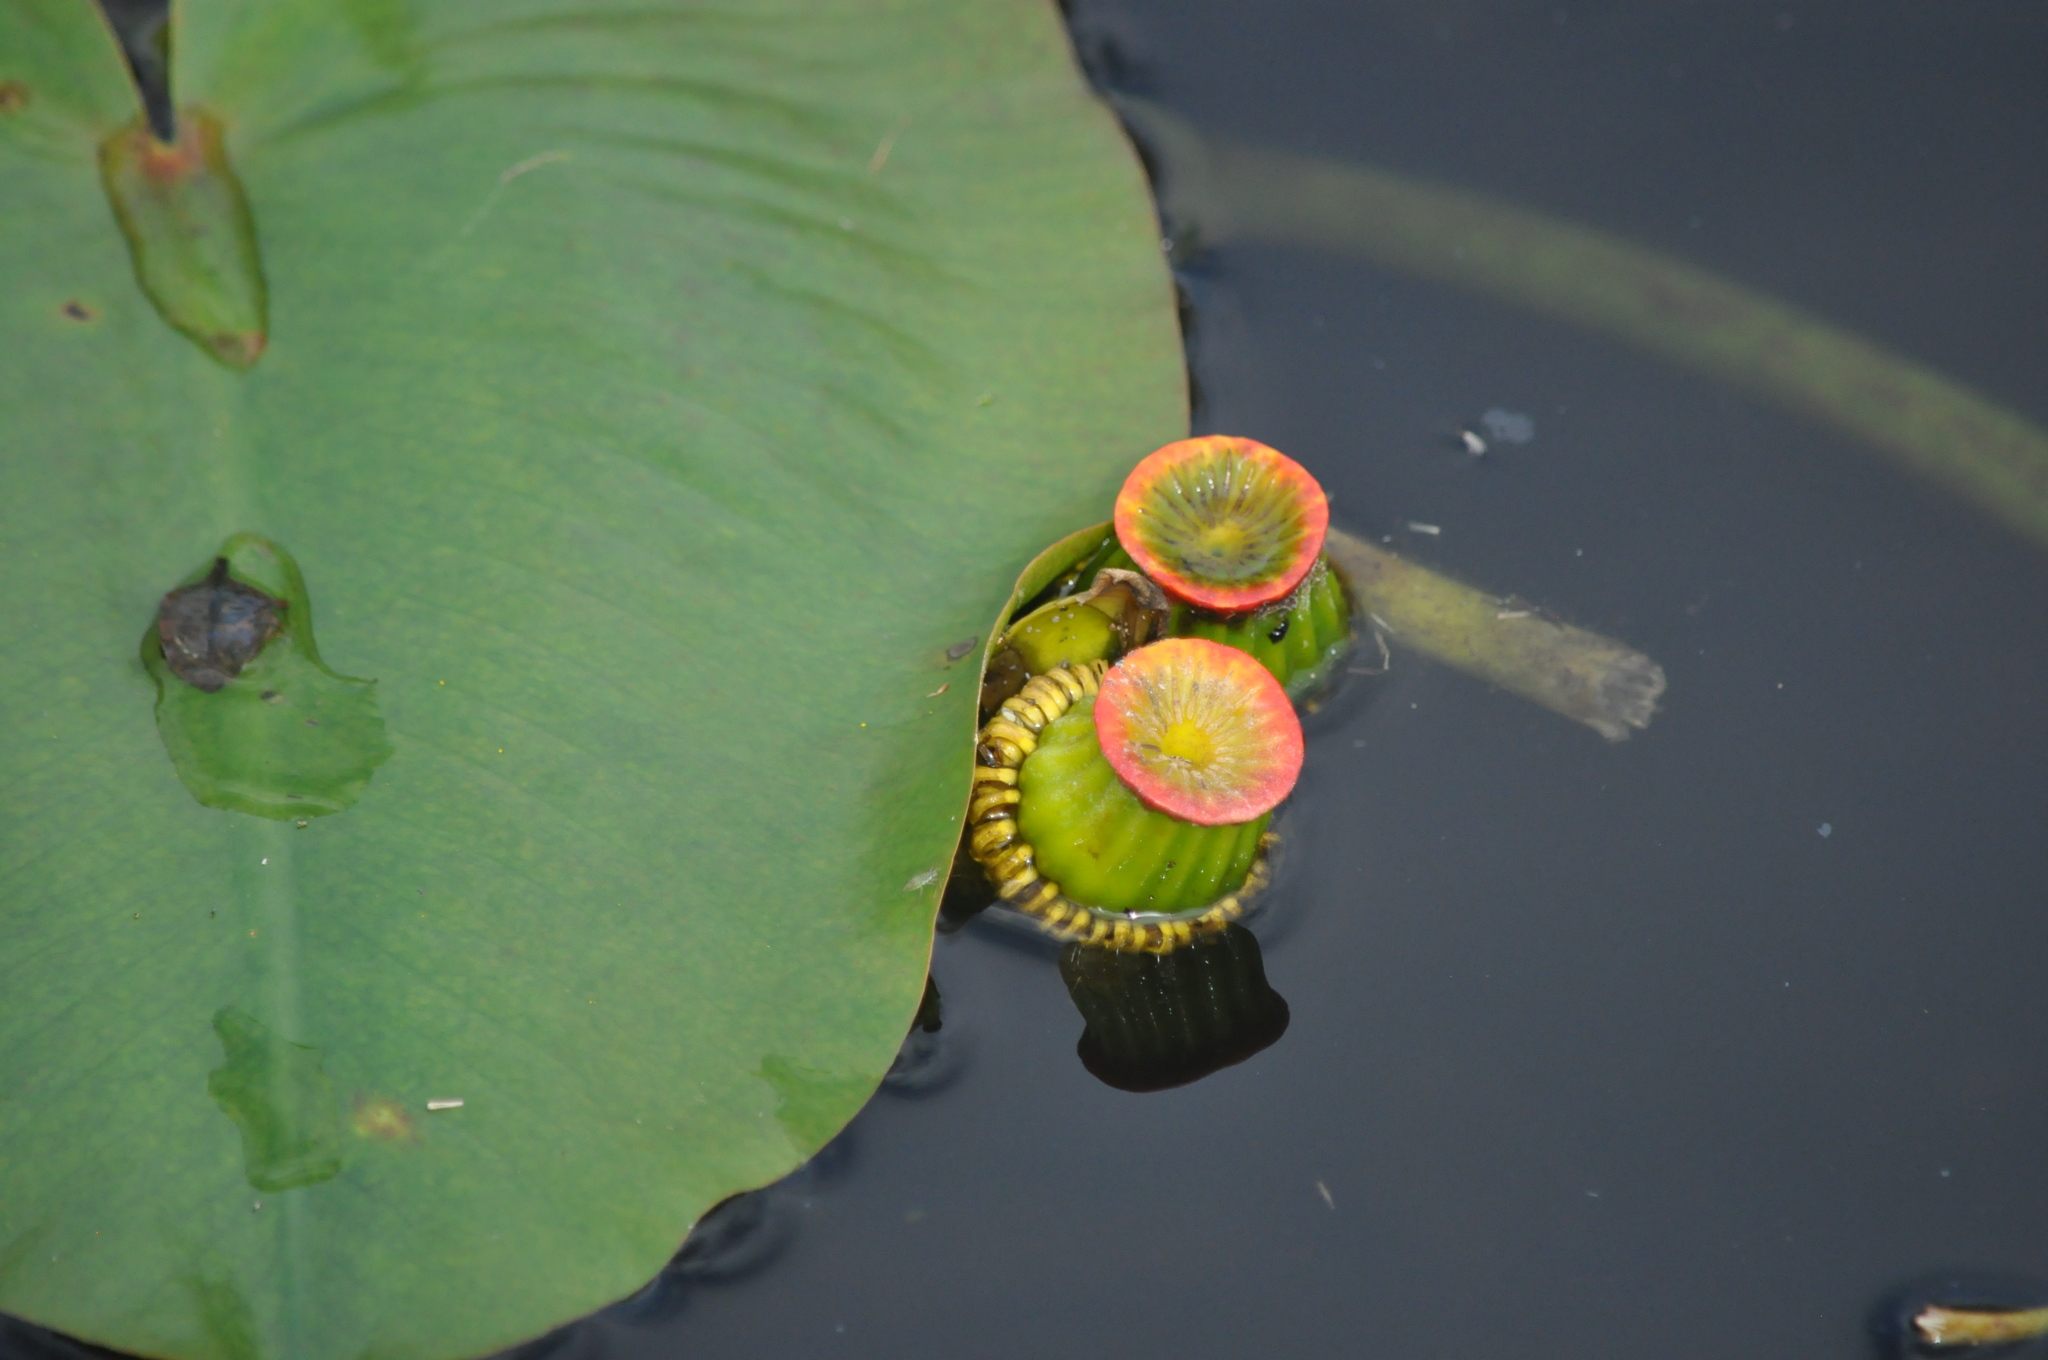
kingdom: Plantae
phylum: Tracheophyta
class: Magnoliopsida
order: Nymphaeales
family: Nymphaeaceae
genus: Nuphar
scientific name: Nuphar advena
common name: Spatter-dock
